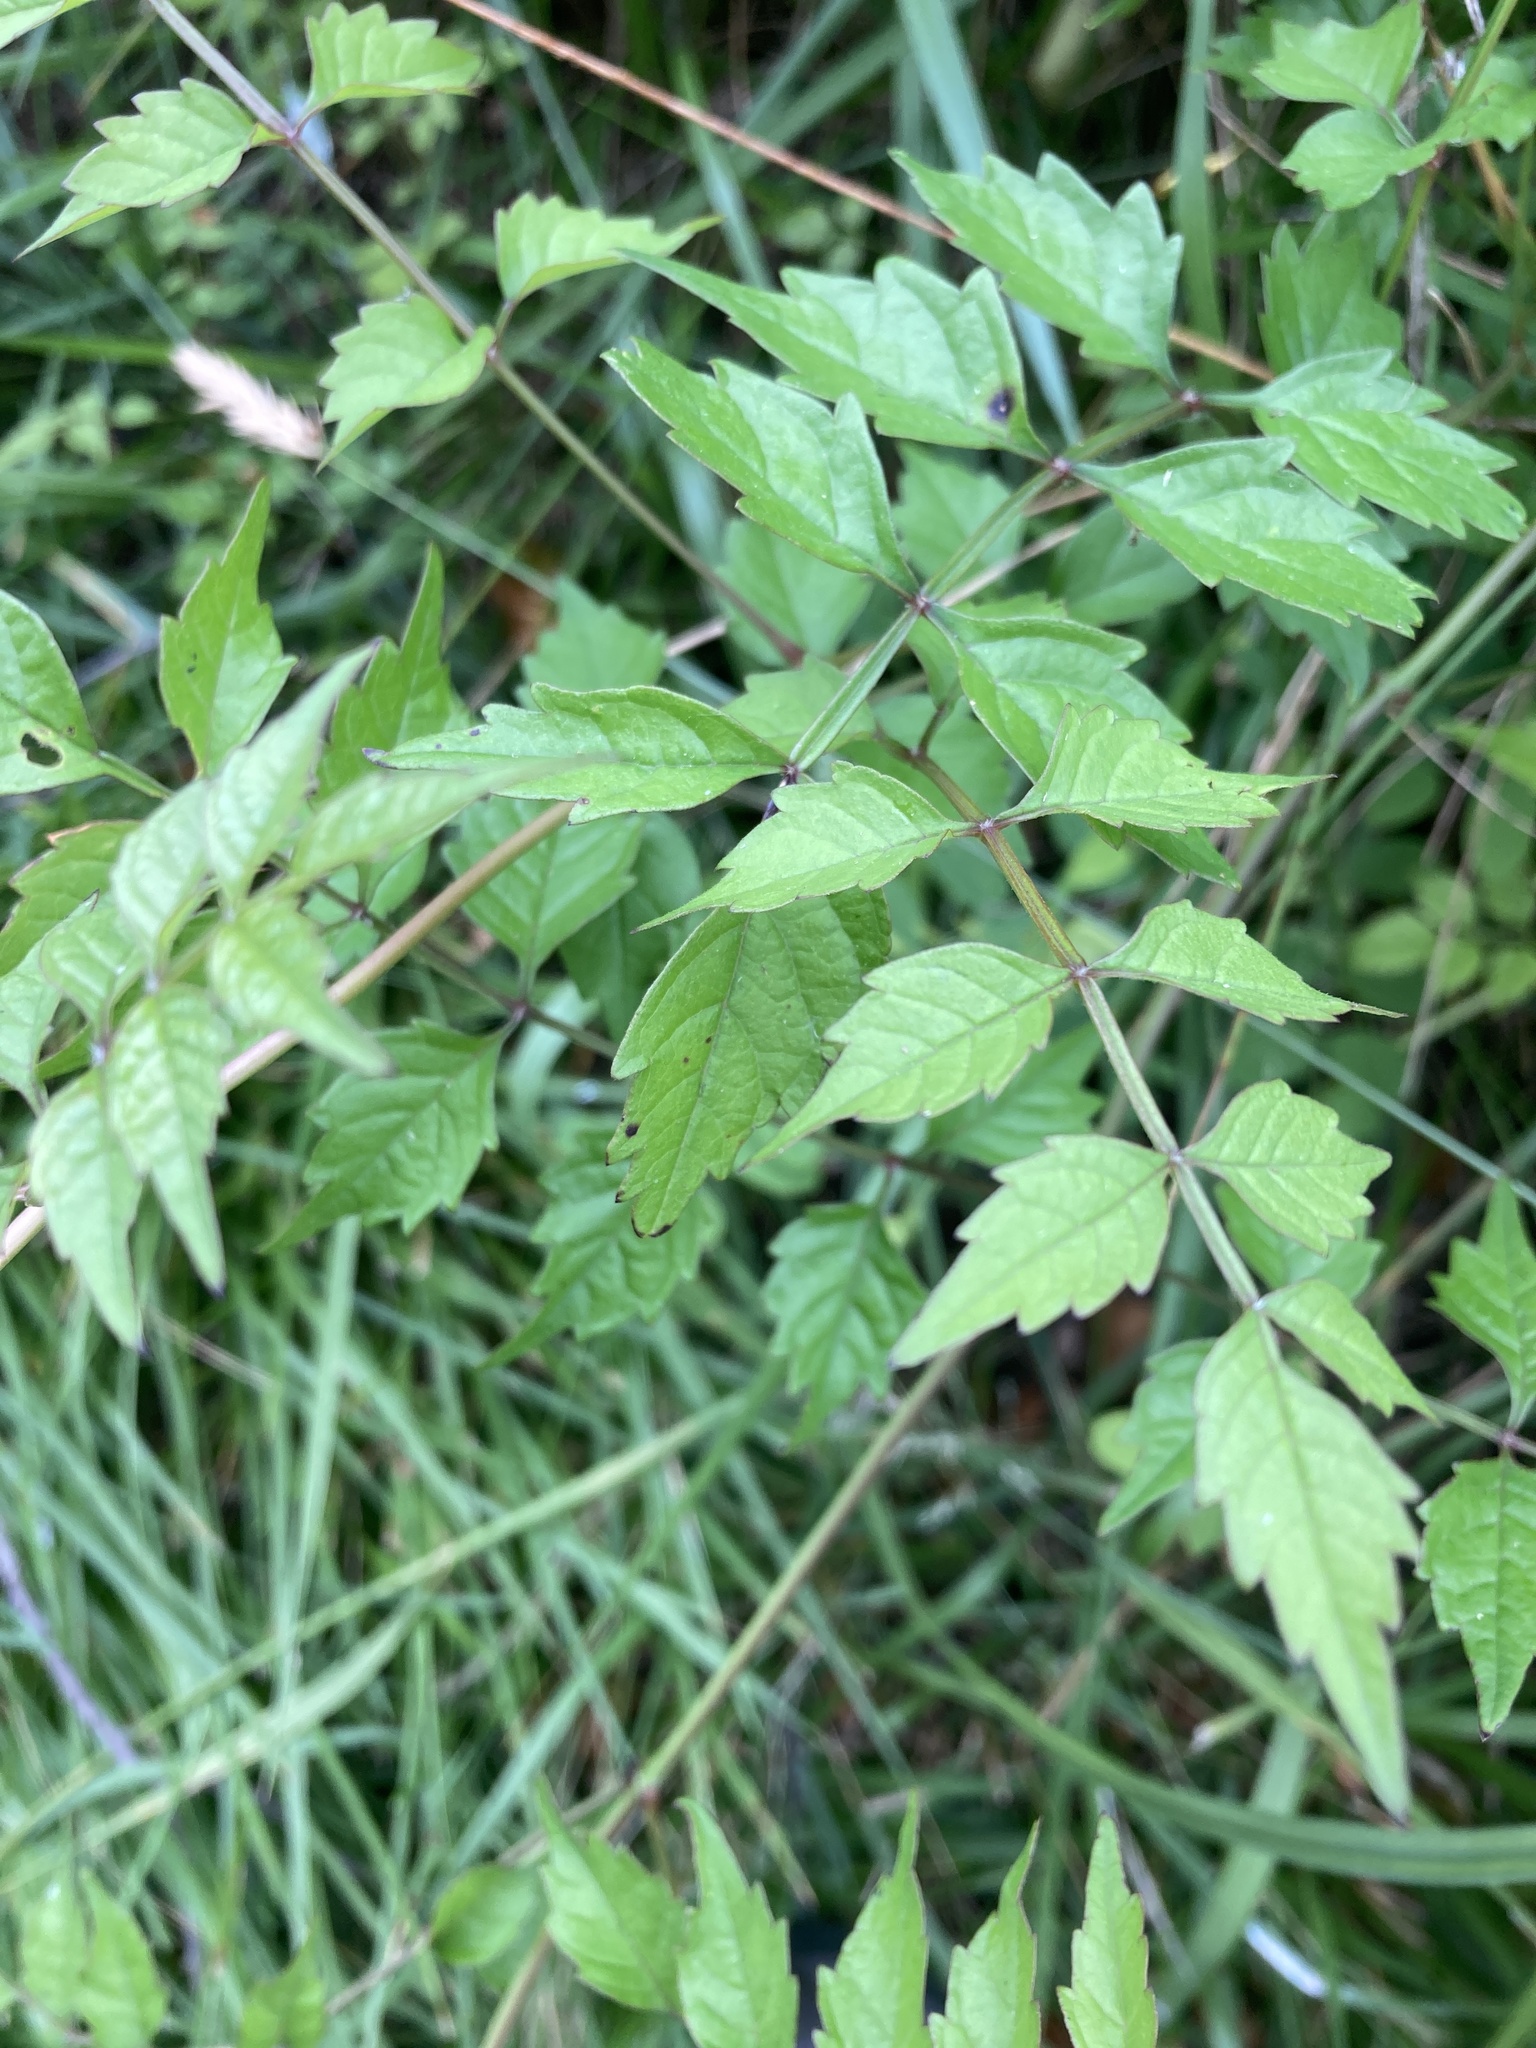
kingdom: Plantae
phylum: Tracheophyta
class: Magnoliopsida
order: Lamiales
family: Bignoniaceae
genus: Campsis
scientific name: Campsis radicans
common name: Trumpet-creeper
